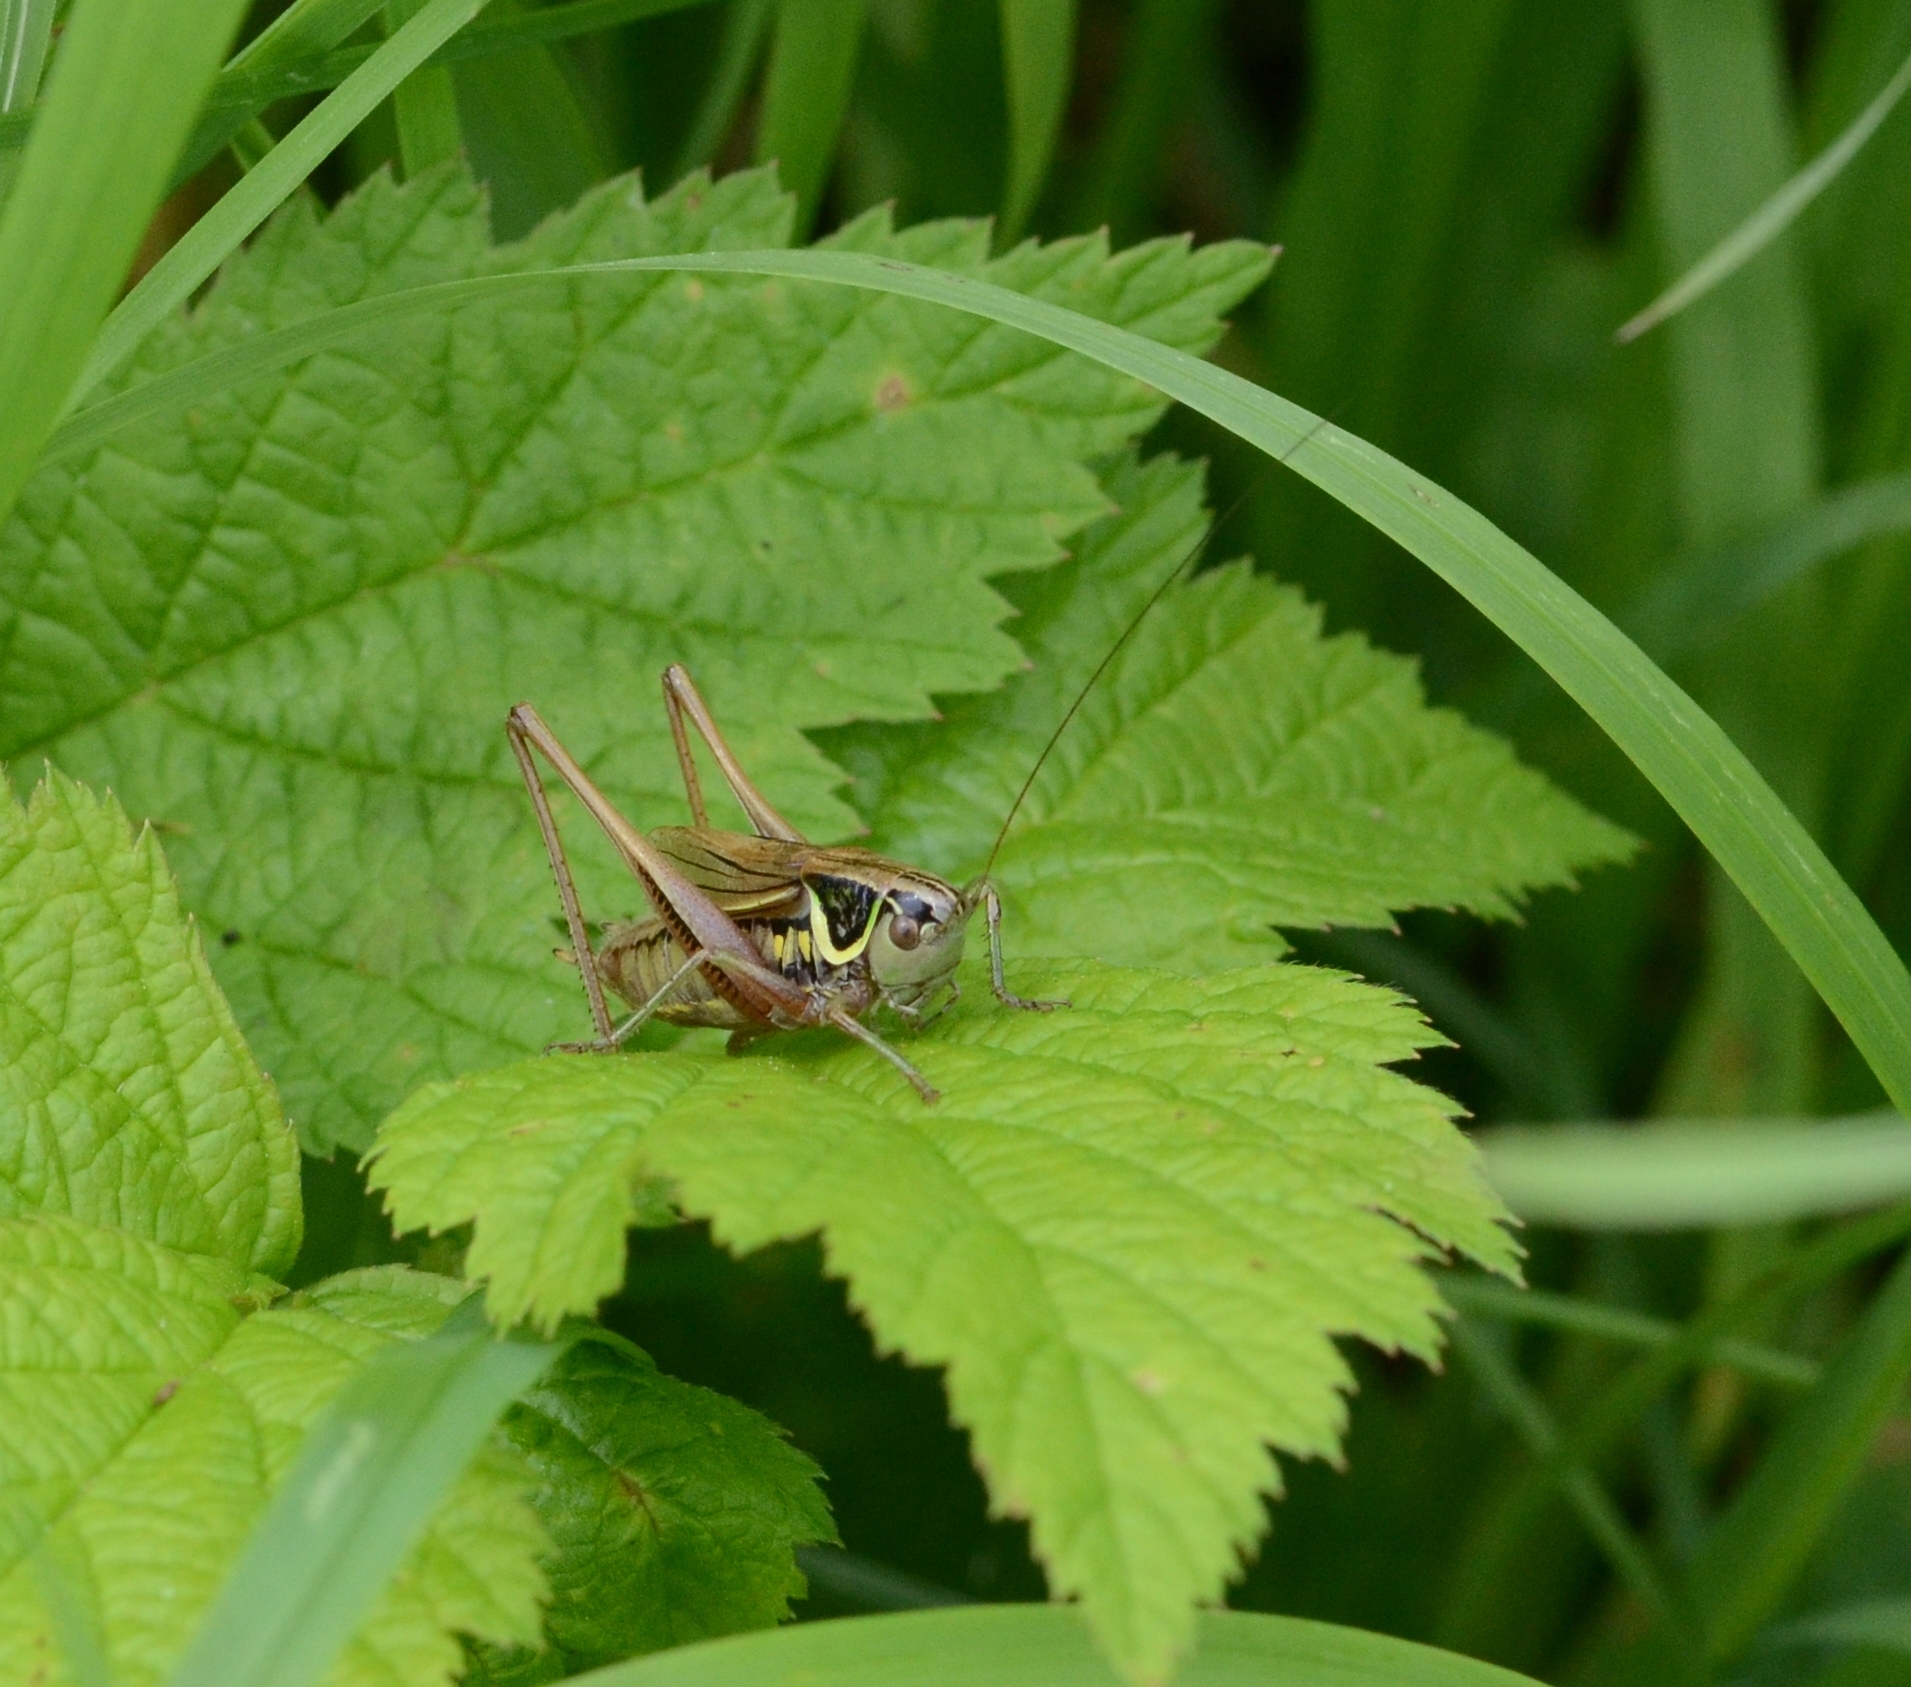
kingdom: Animalia
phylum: Arthropoda
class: Insecta
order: Orthoptera
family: Tettigoniidae
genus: Roeseliana
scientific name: Roeseliana roeselii
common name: Roesel's bush cricket
